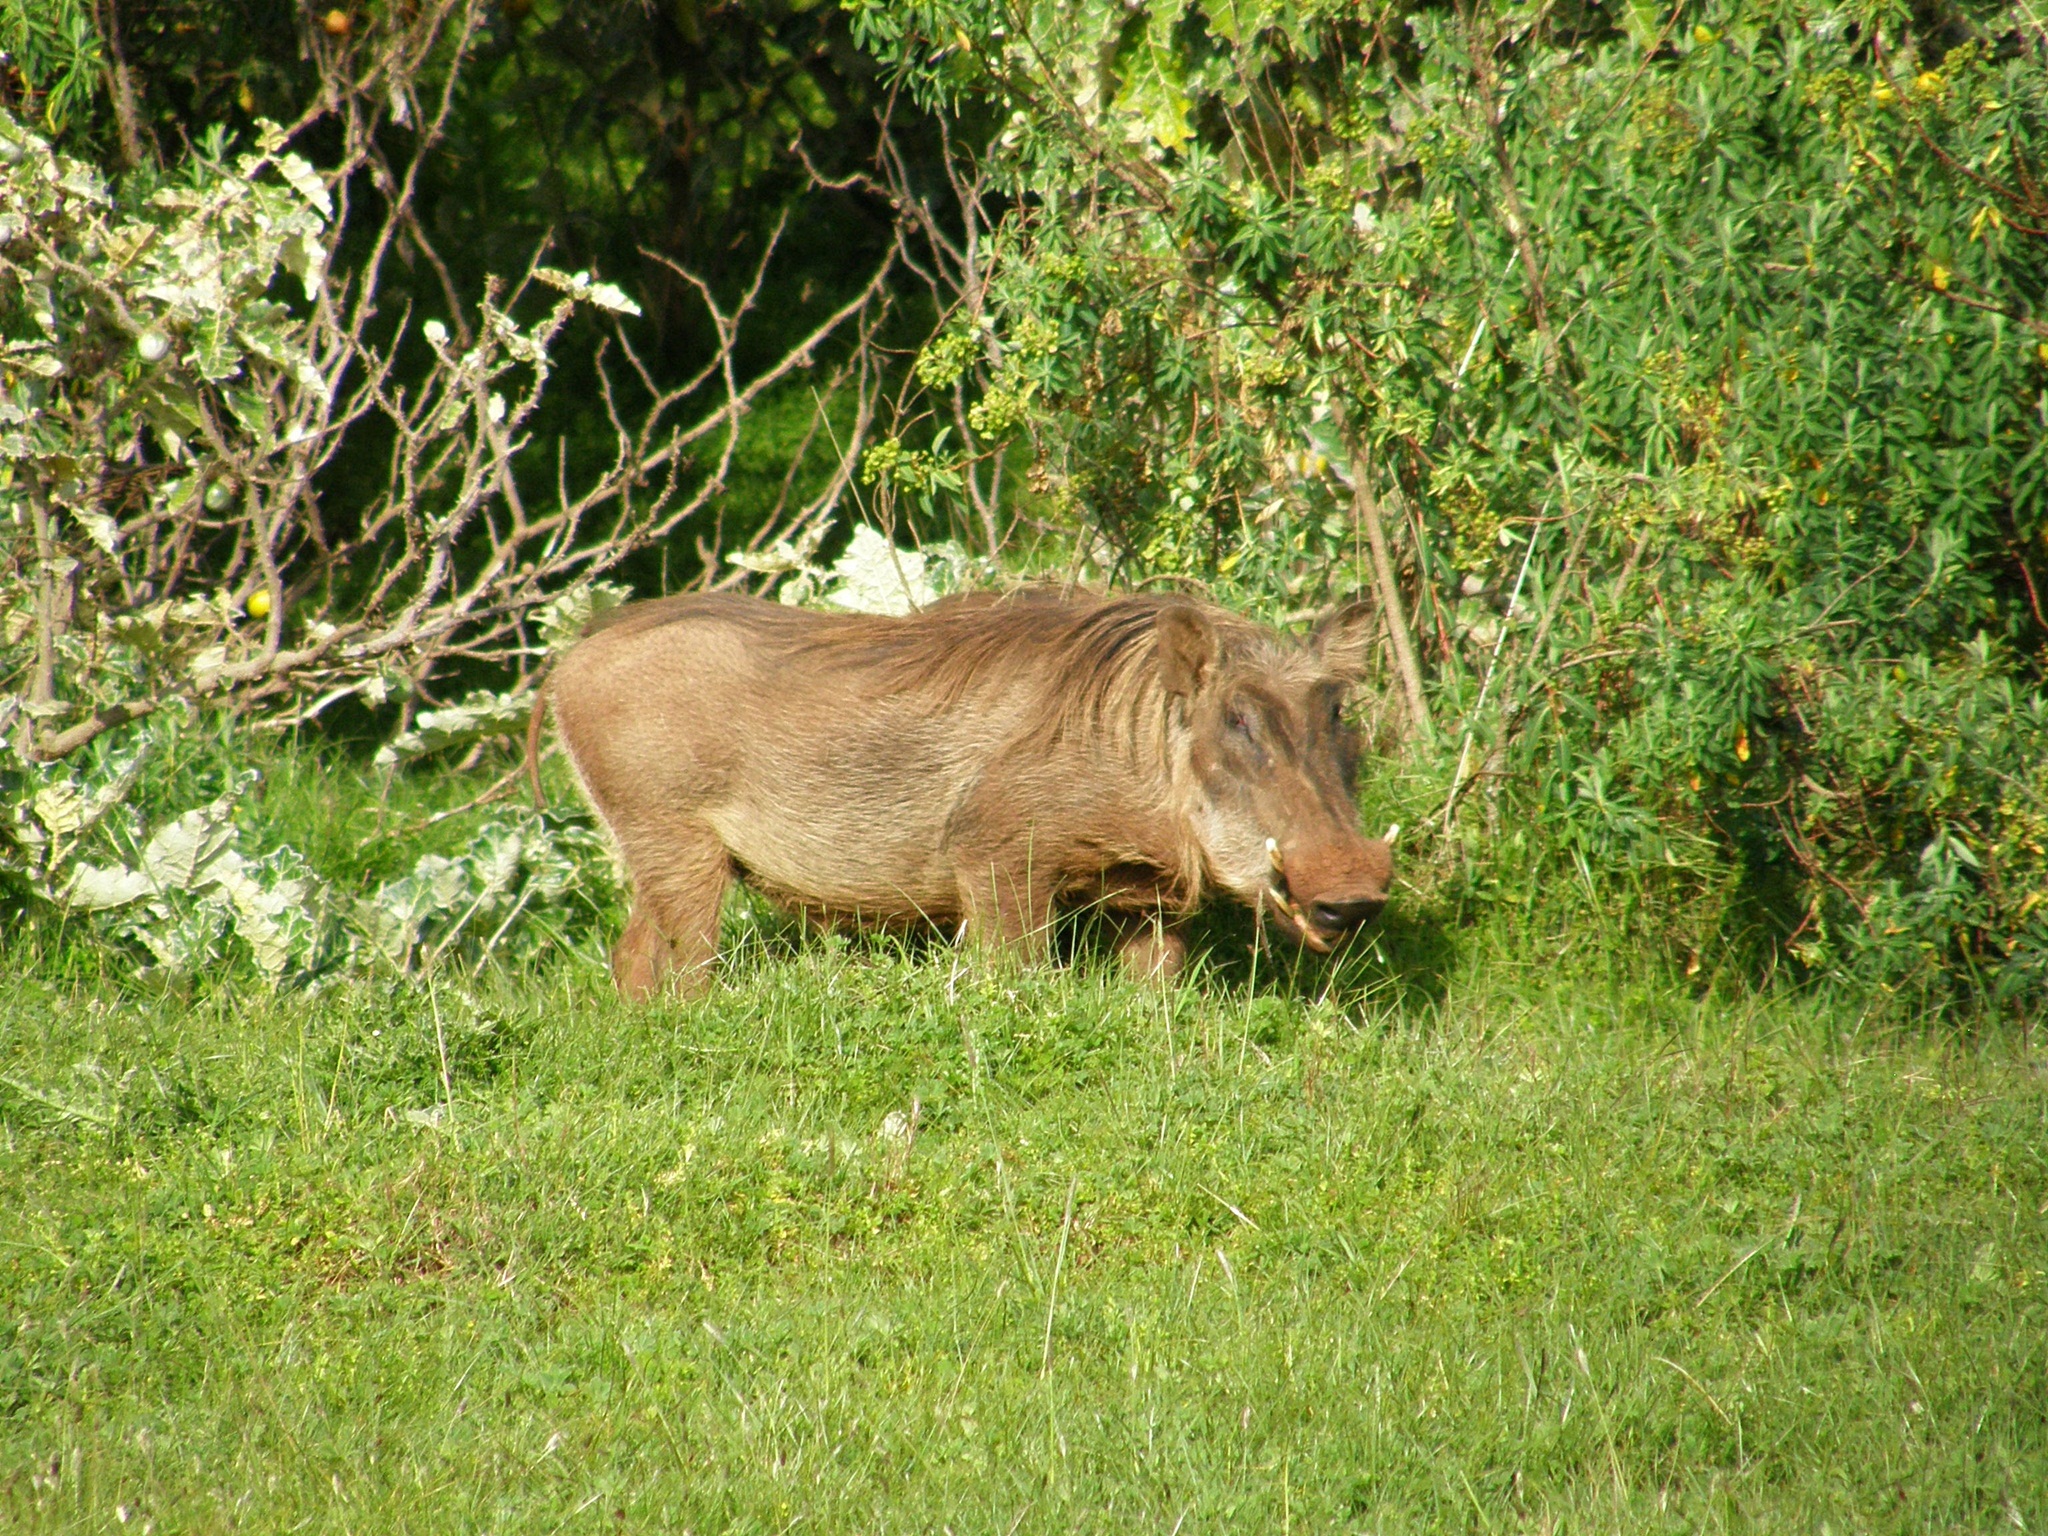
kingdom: Animalia
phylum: Chordata
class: Mammalia
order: Artiodactyla
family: Suidae
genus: Phacochoerus
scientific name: Phacochoerus africanus
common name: Common warthog
